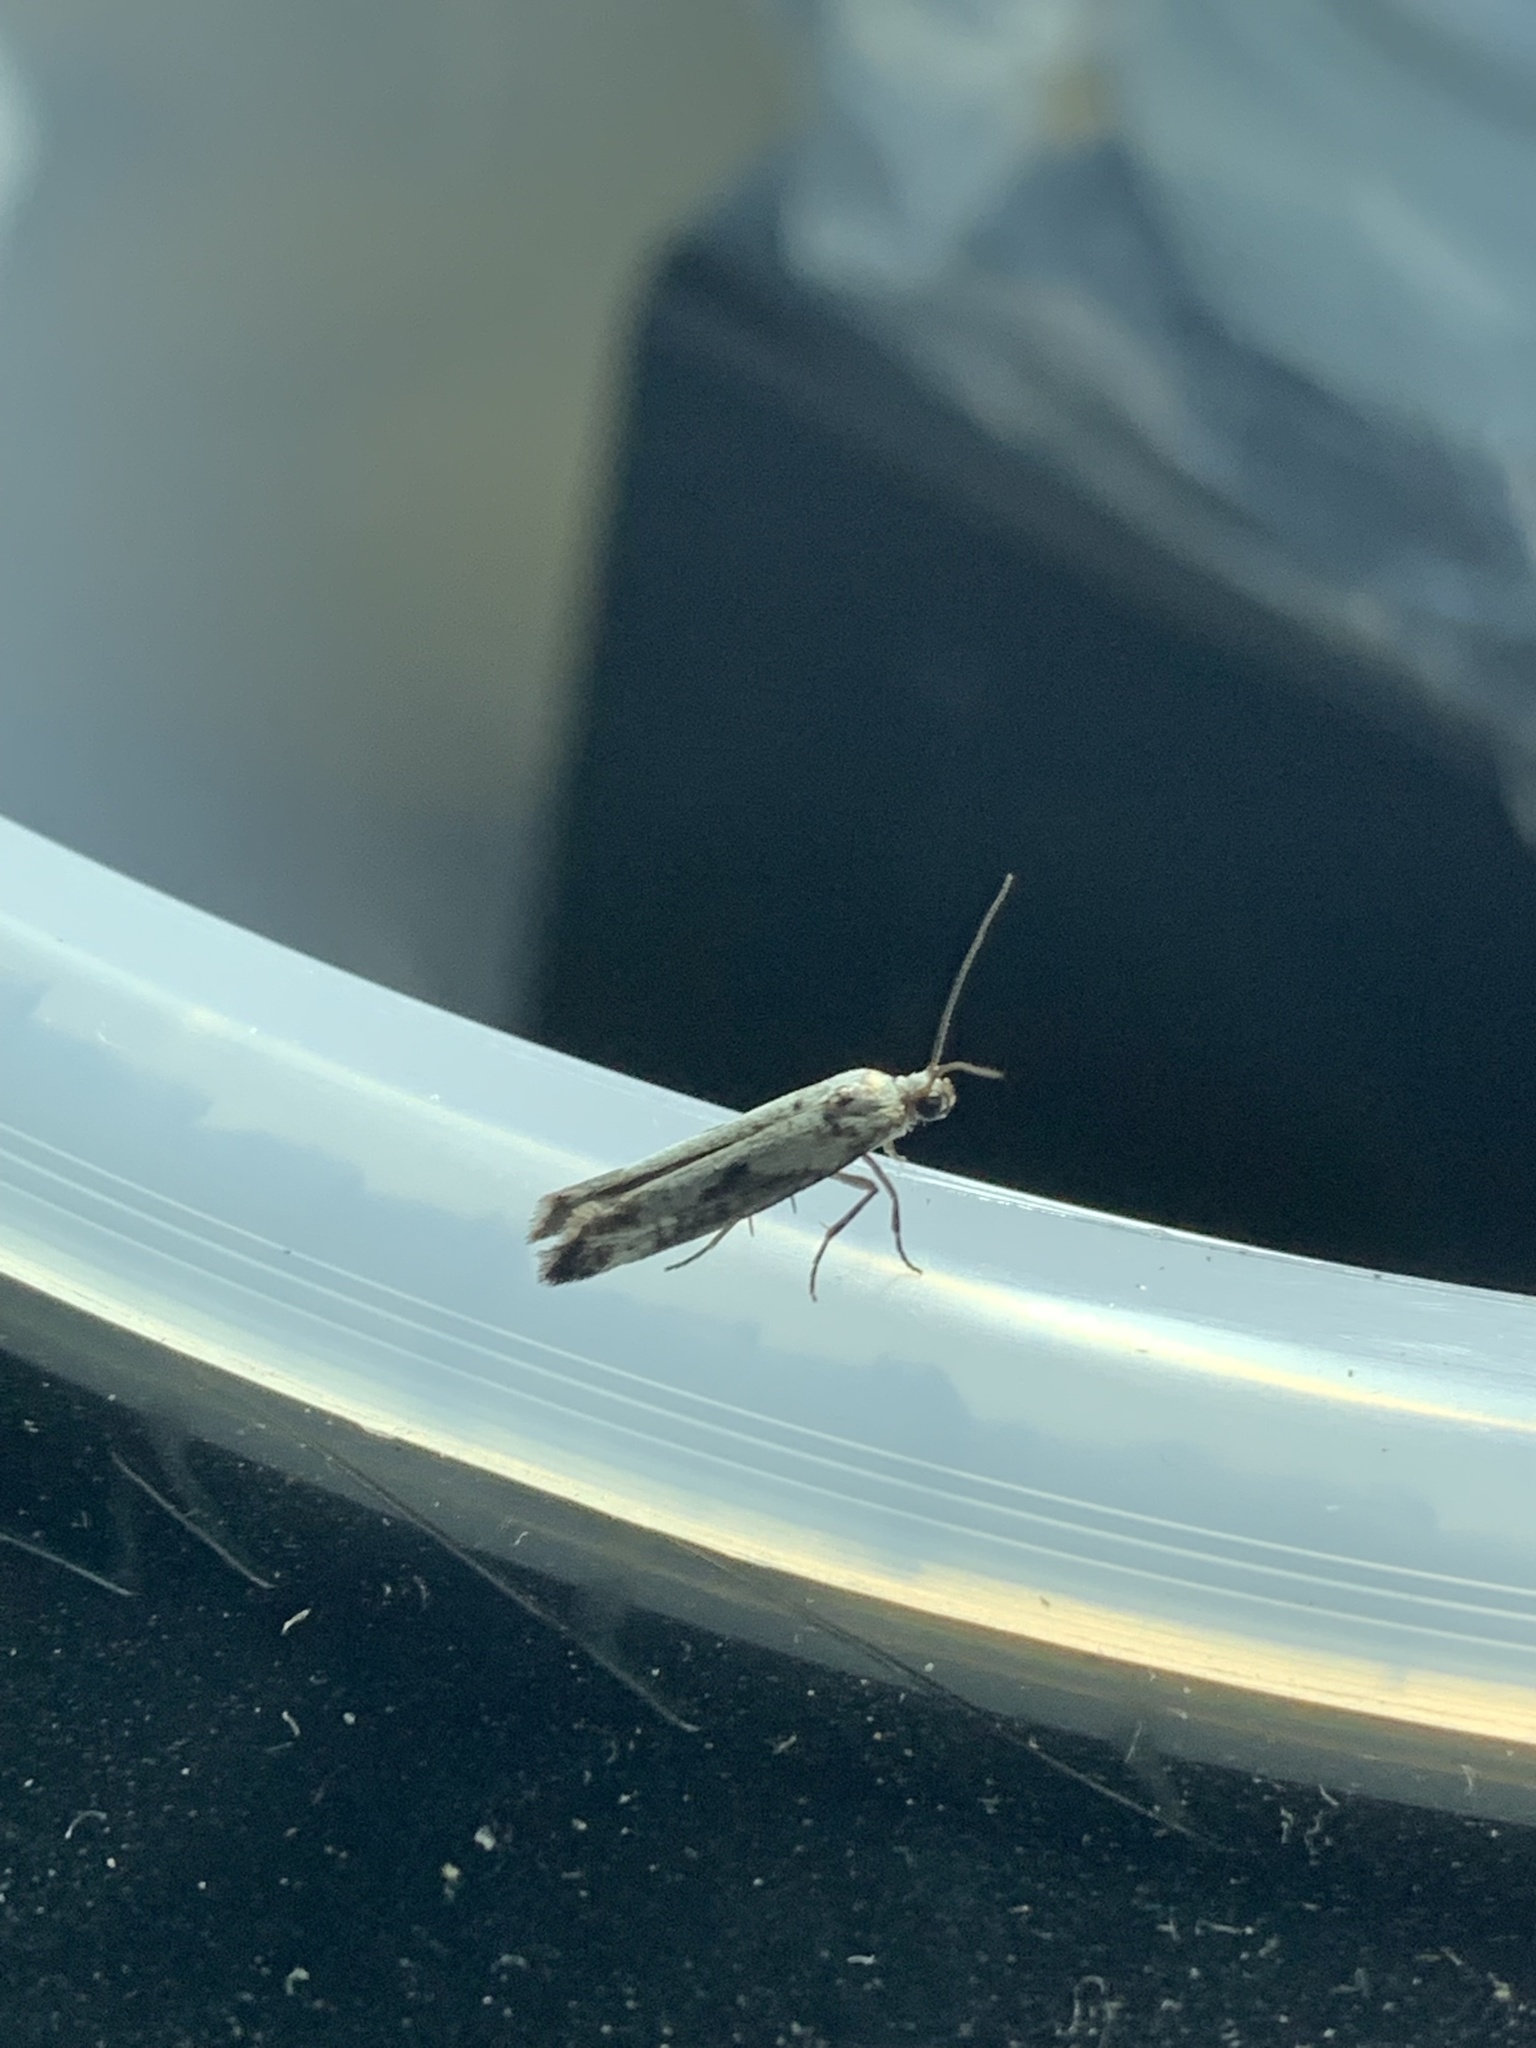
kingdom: Animalia
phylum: Arthropoda
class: Insecta
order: Lepidoptera
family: Praydidae
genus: Prays
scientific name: Prays fraxinella
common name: Ash bud moth
